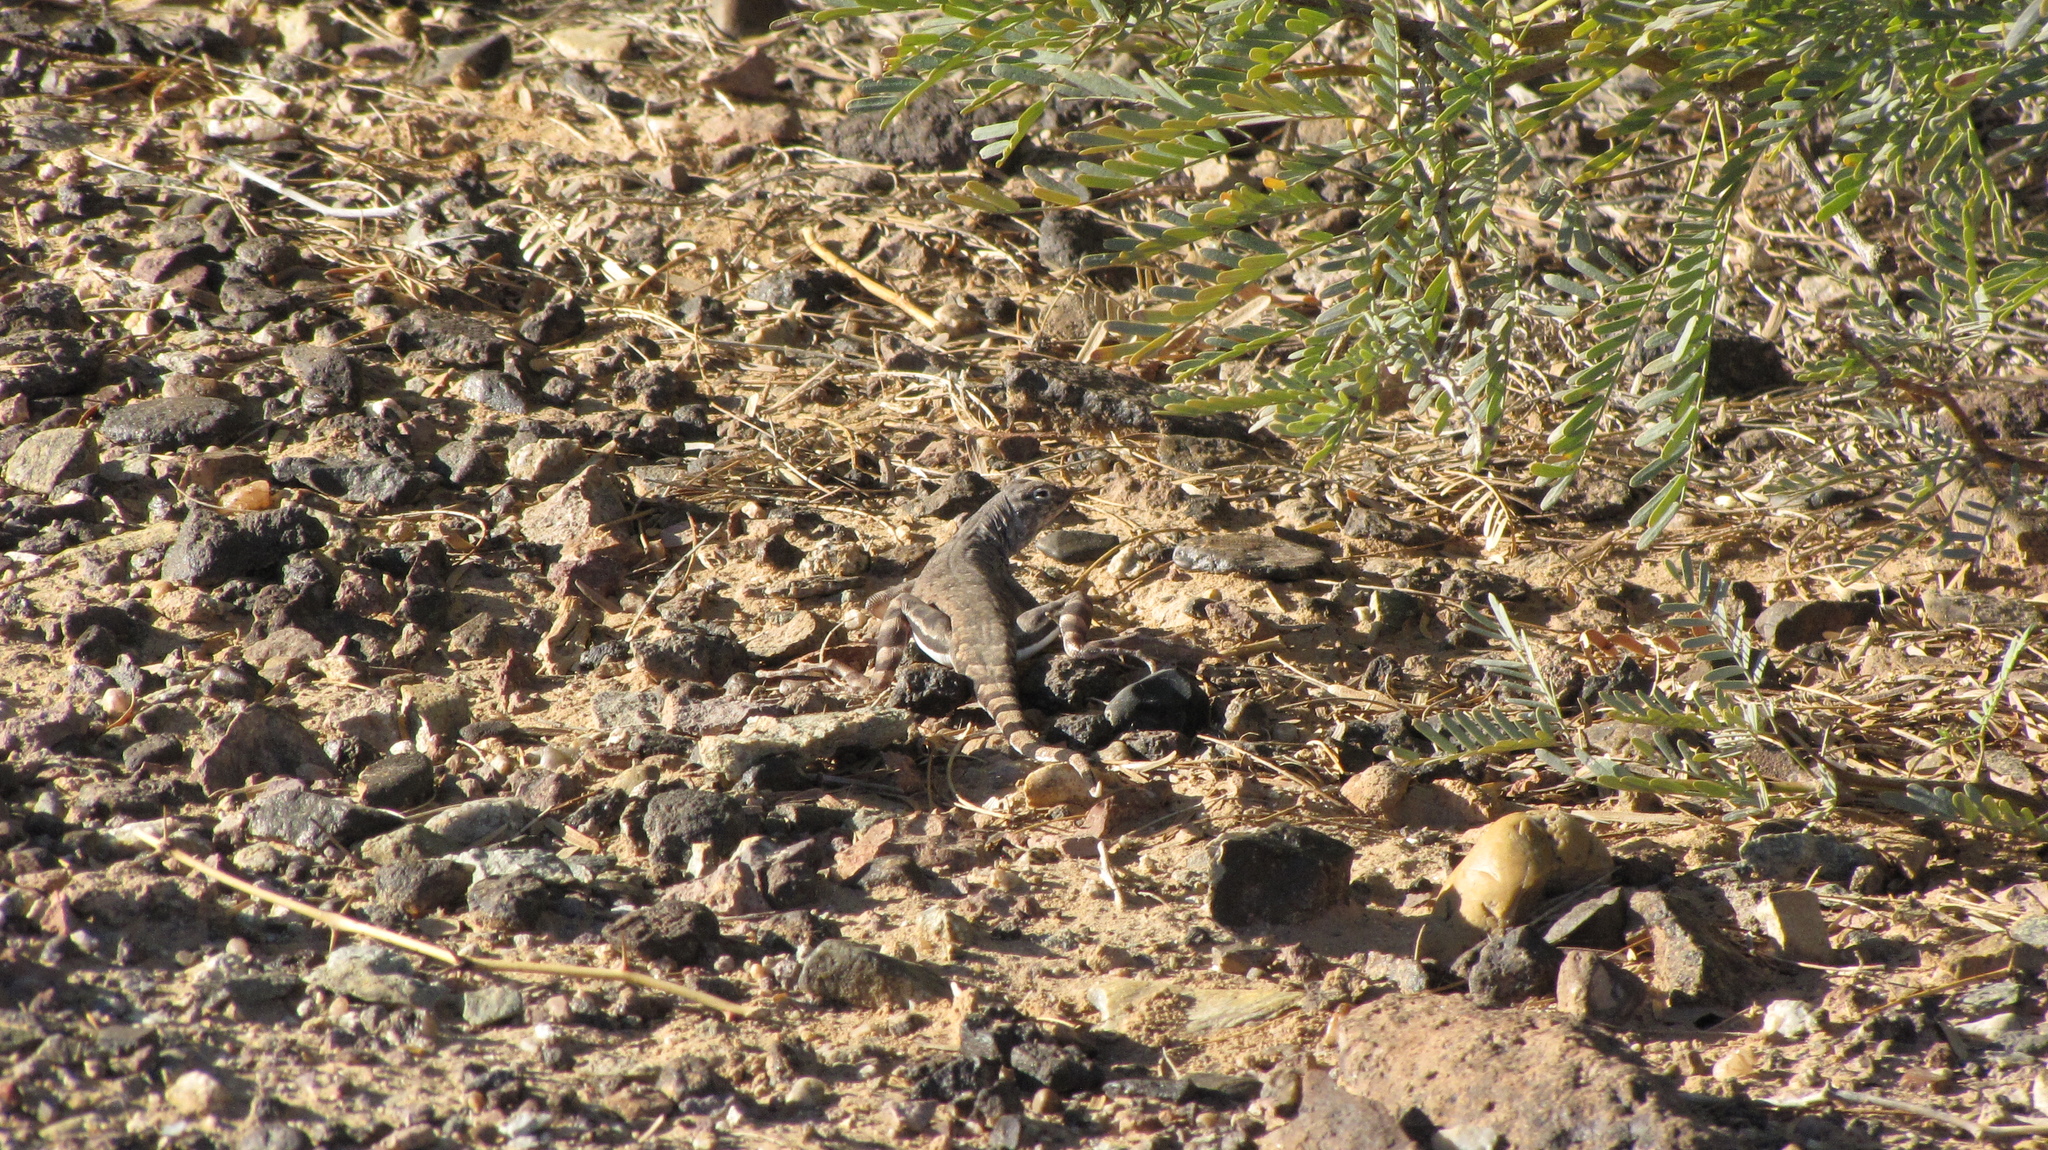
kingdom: Animalia
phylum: Chordata
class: Squamata
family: Phrynosomatidae
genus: Callisaurus
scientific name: Callisaurus draconoides
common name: Zebra-tailed lizard
